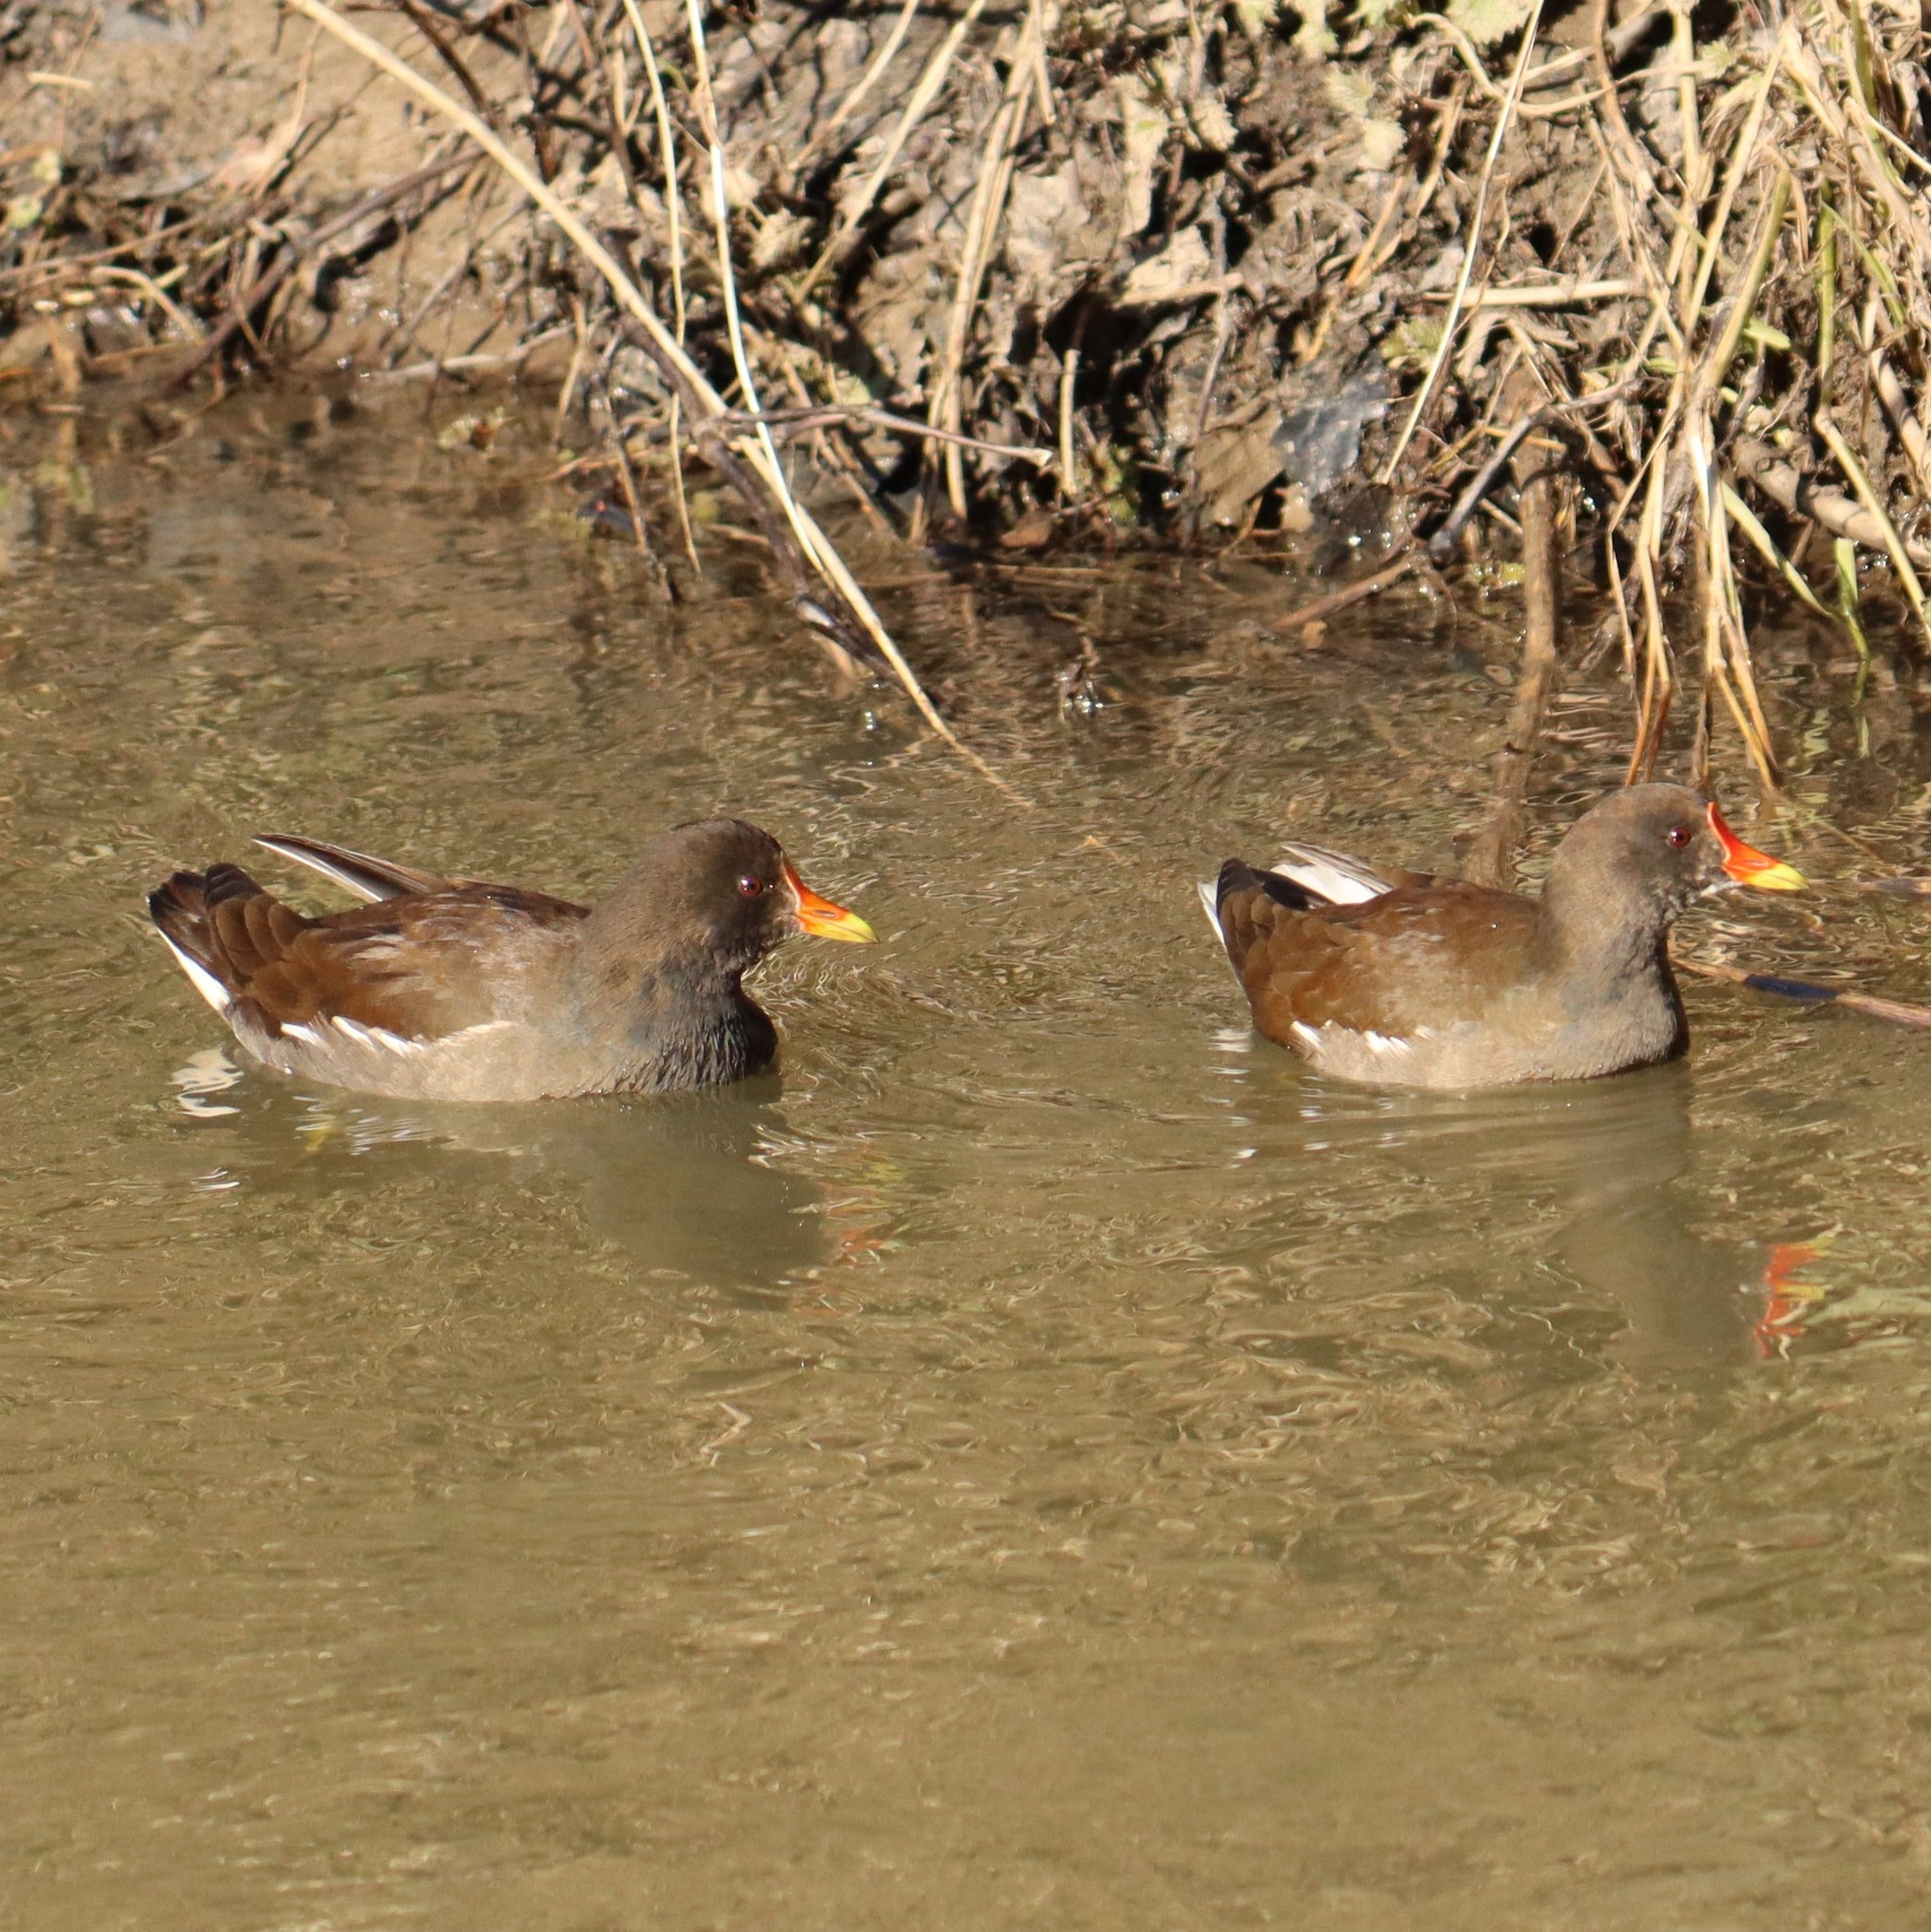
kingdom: Animalia
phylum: Chordata
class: Aves
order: Gruiformes
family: Rallidae
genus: Gallinula
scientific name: Gallinula chloropus
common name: Common moorhen
